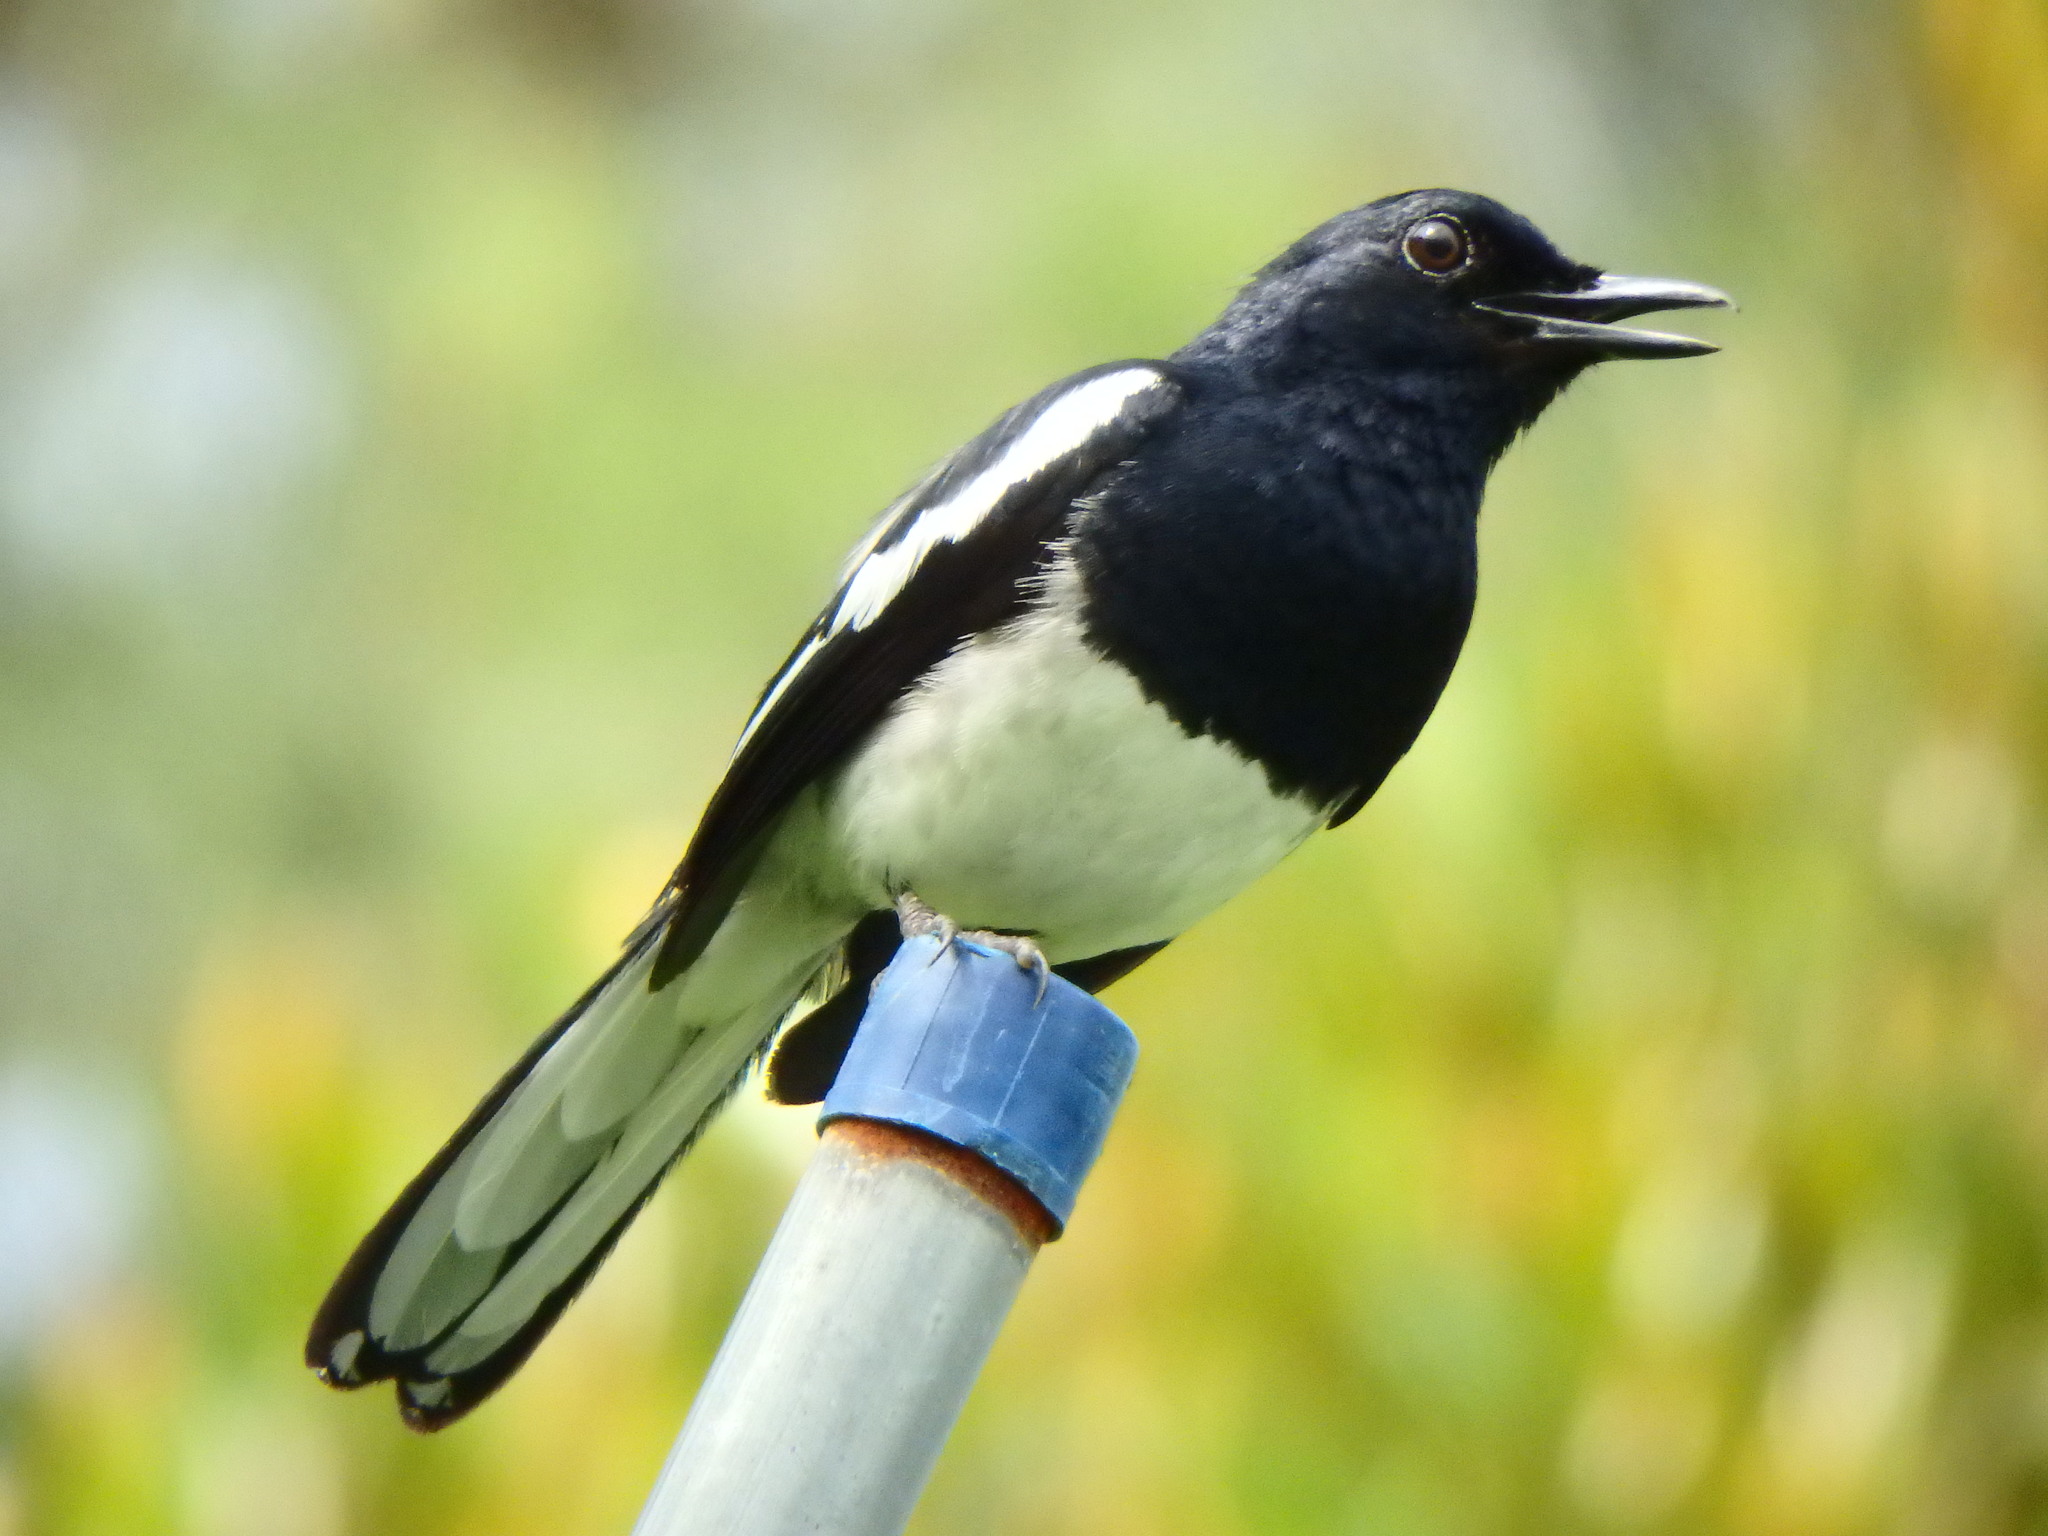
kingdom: Animalia
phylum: Chordata
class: Aves
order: Passeriformes
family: Muscicapidae
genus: Copsychus
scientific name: Copsychus saularis
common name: Oriental magpie-robin
